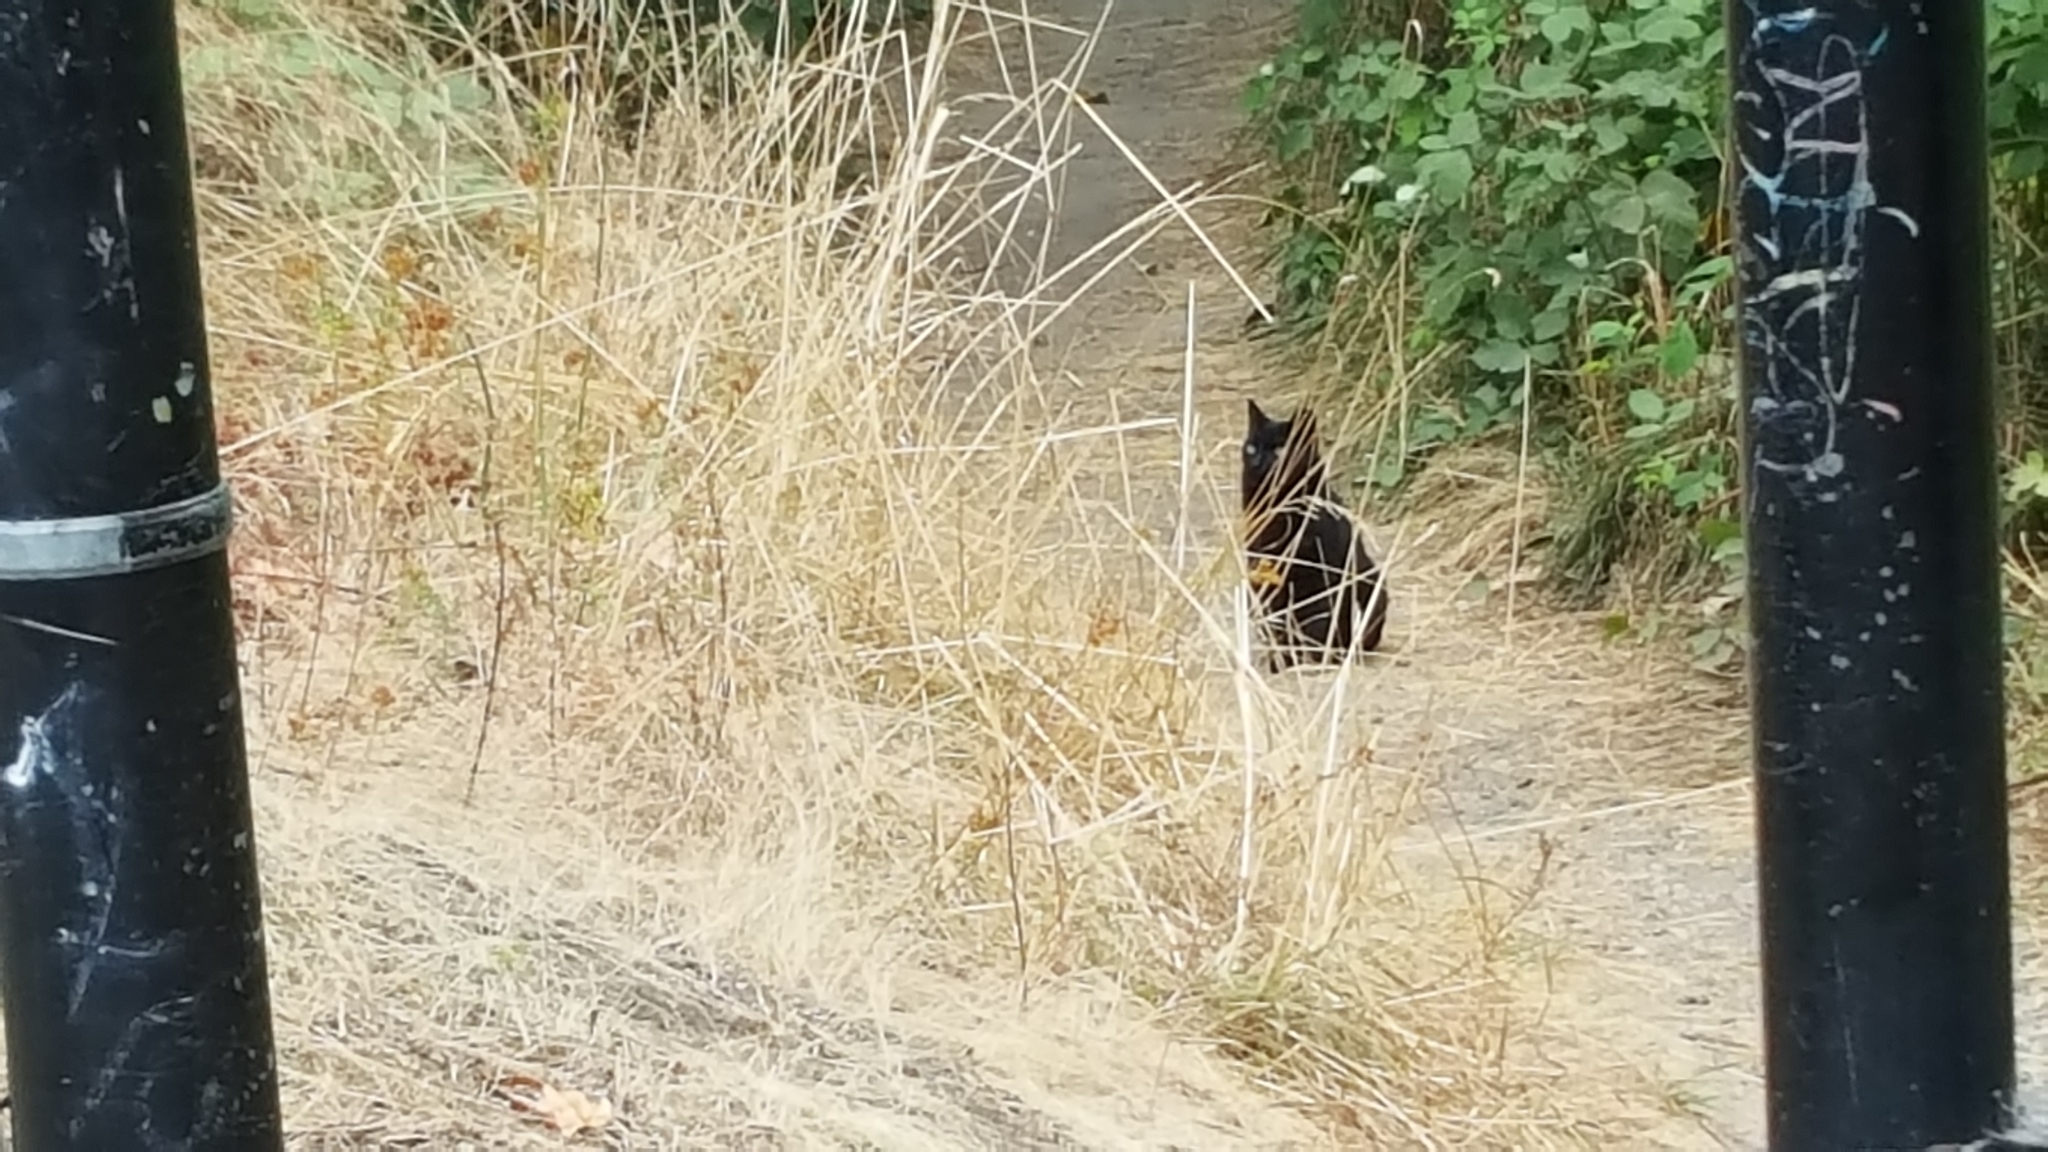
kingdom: Animalia
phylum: Chordata
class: Mammalia
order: Carnivora
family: Felidae
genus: Felis
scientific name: Felis catus
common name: Domestic cat
